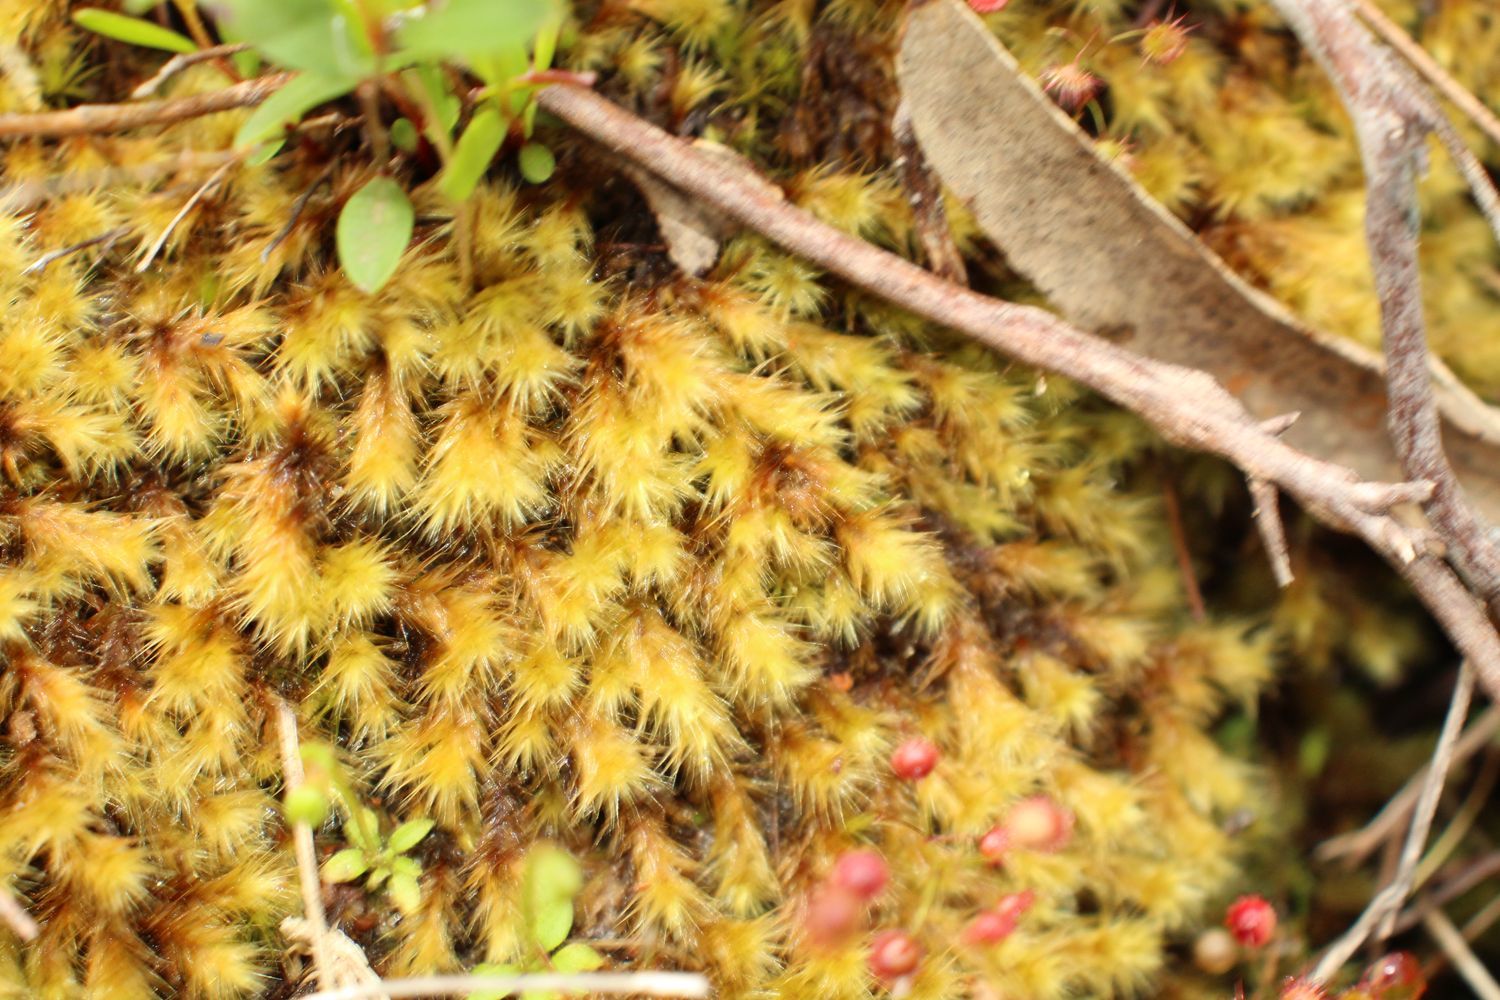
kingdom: Plantae
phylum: Bryophyta
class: Bryopsida
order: Bartramiales
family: Bartramiaceae
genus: Breutelia
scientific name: Breutelia affinis
